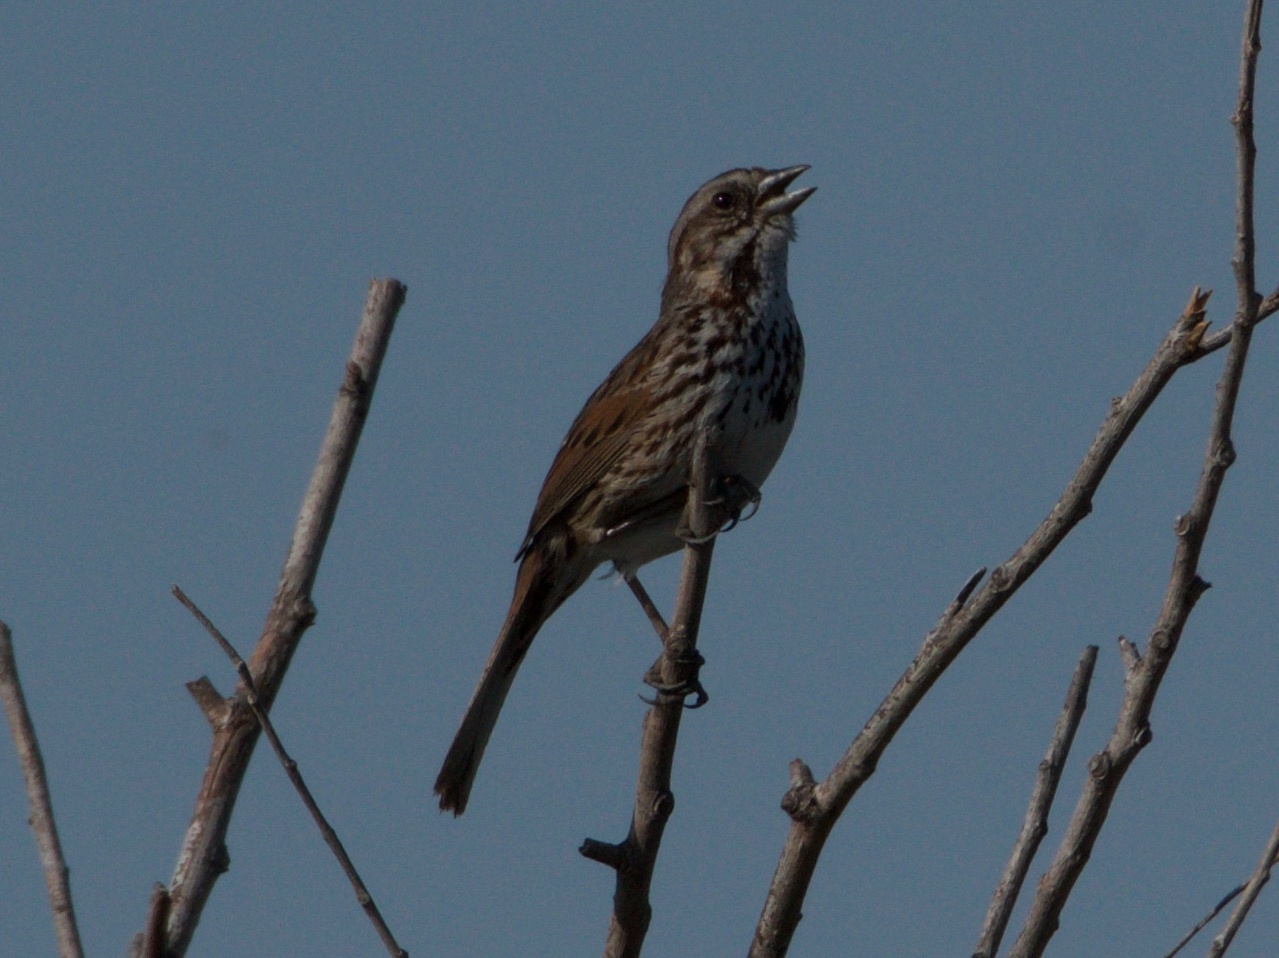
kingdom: Animalia
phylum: Chordata
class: Aves
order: Passeriformes
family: Passerellidae
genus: Melospiza
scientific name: Melospiza melodia
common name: Song sparrow
